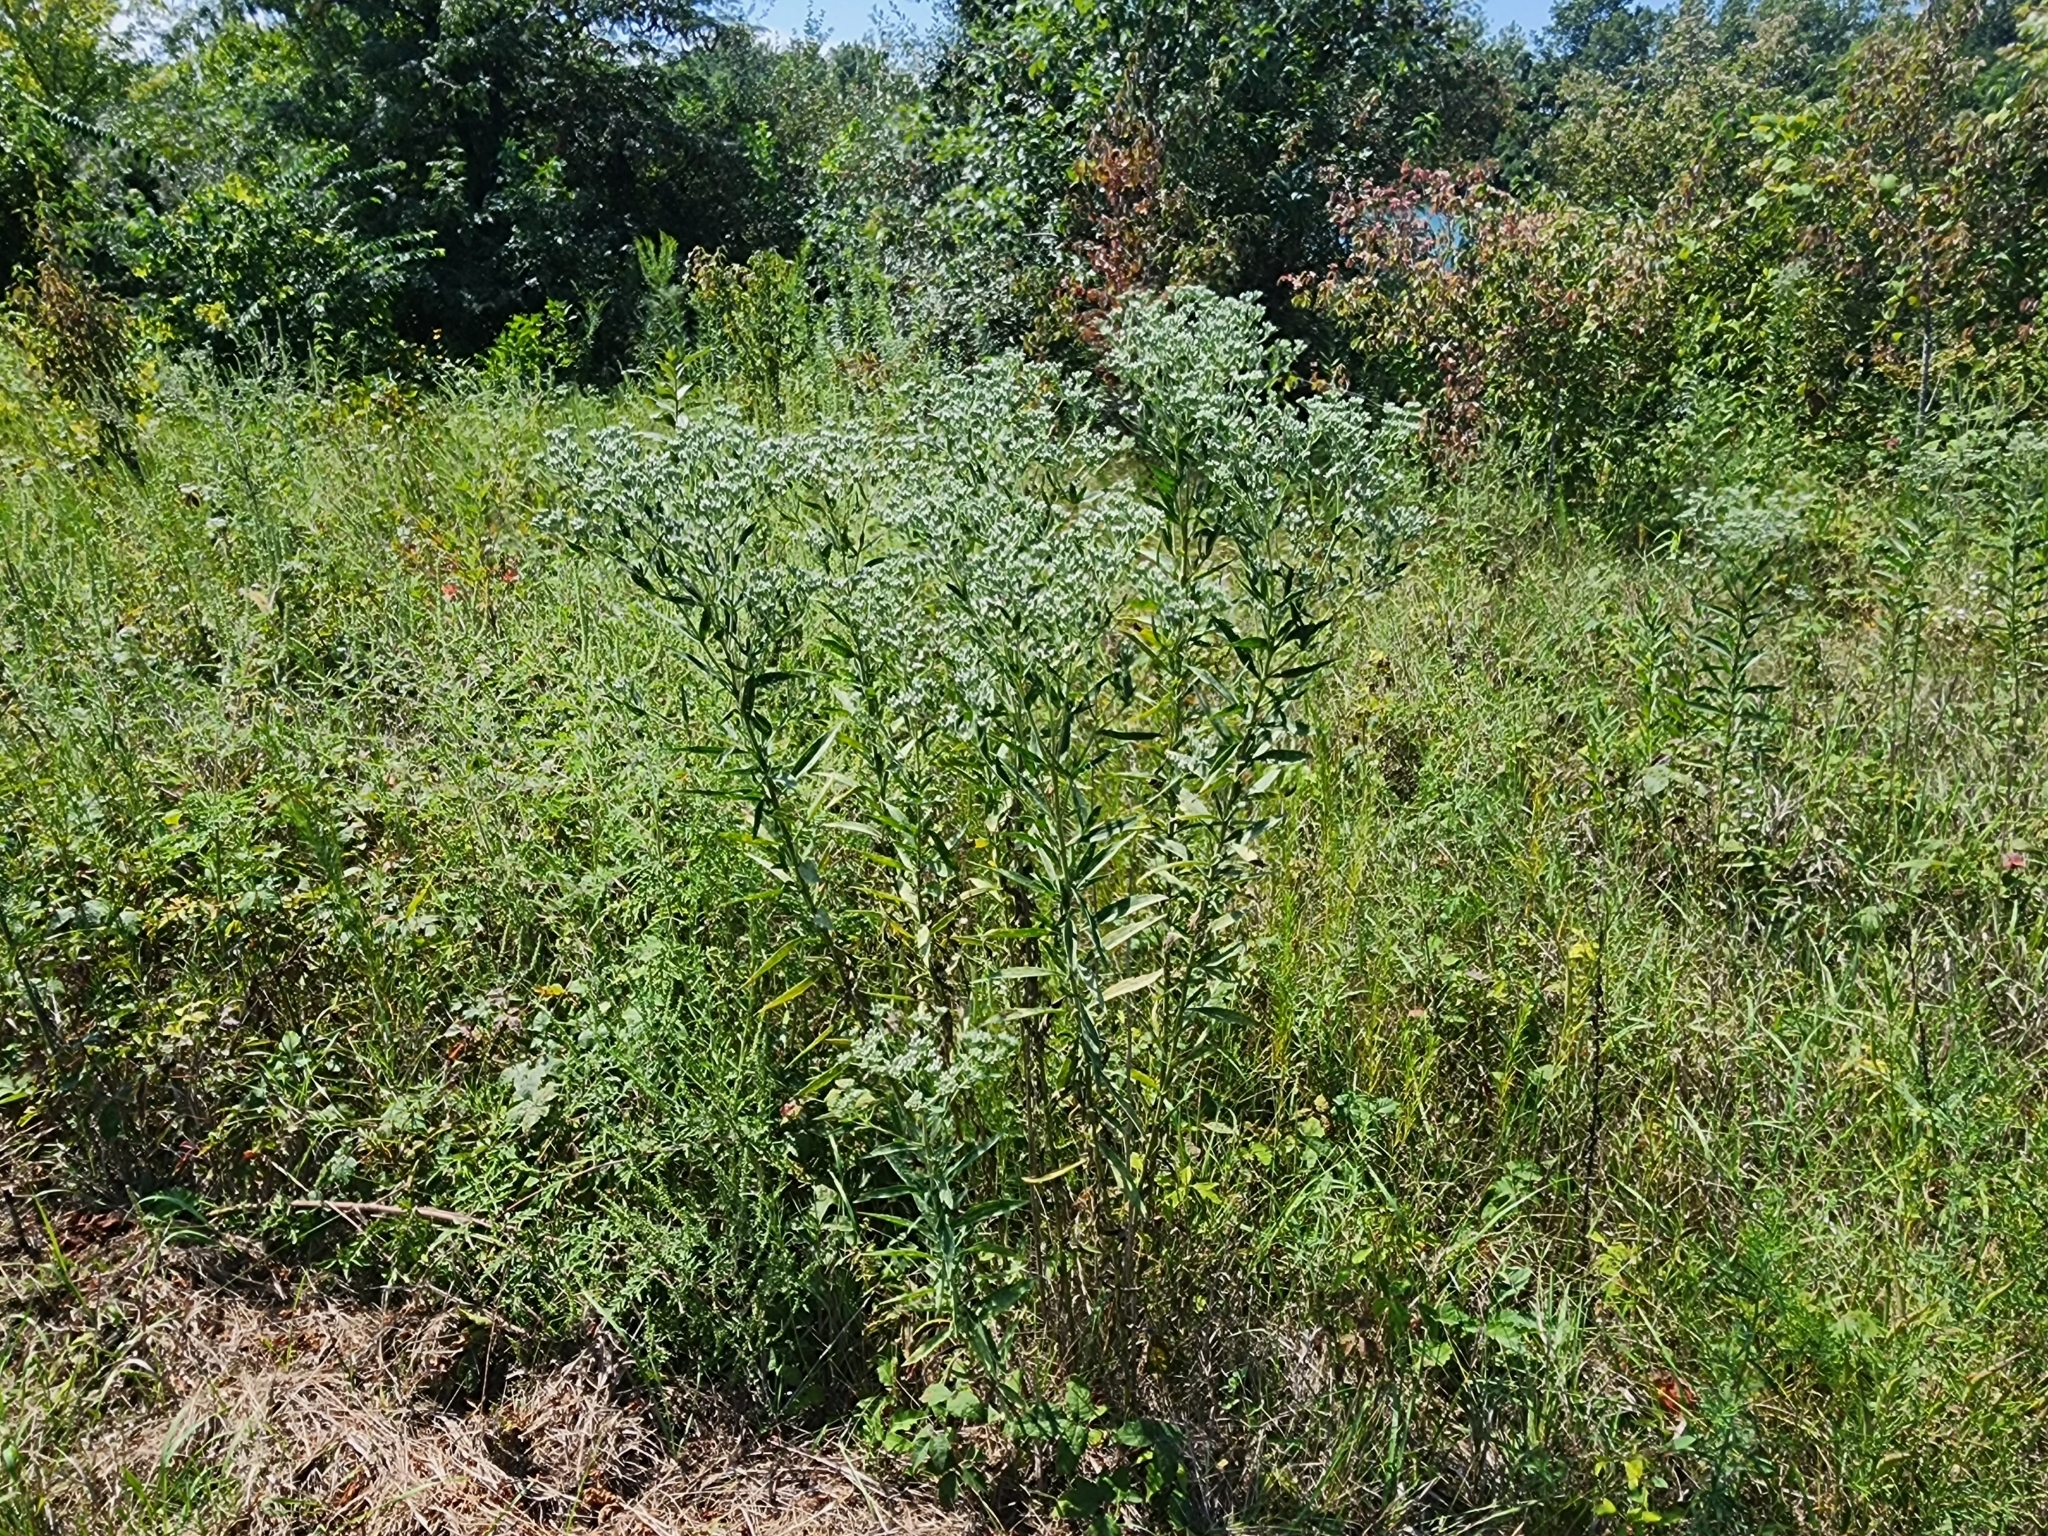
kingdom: Plantae
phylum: Tracheophyta
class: Magnoliopsida
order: Asterales
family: Asteraceae
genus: Eupatorium
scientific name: Eupatorium altissimum
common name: Tall thoroughwort
